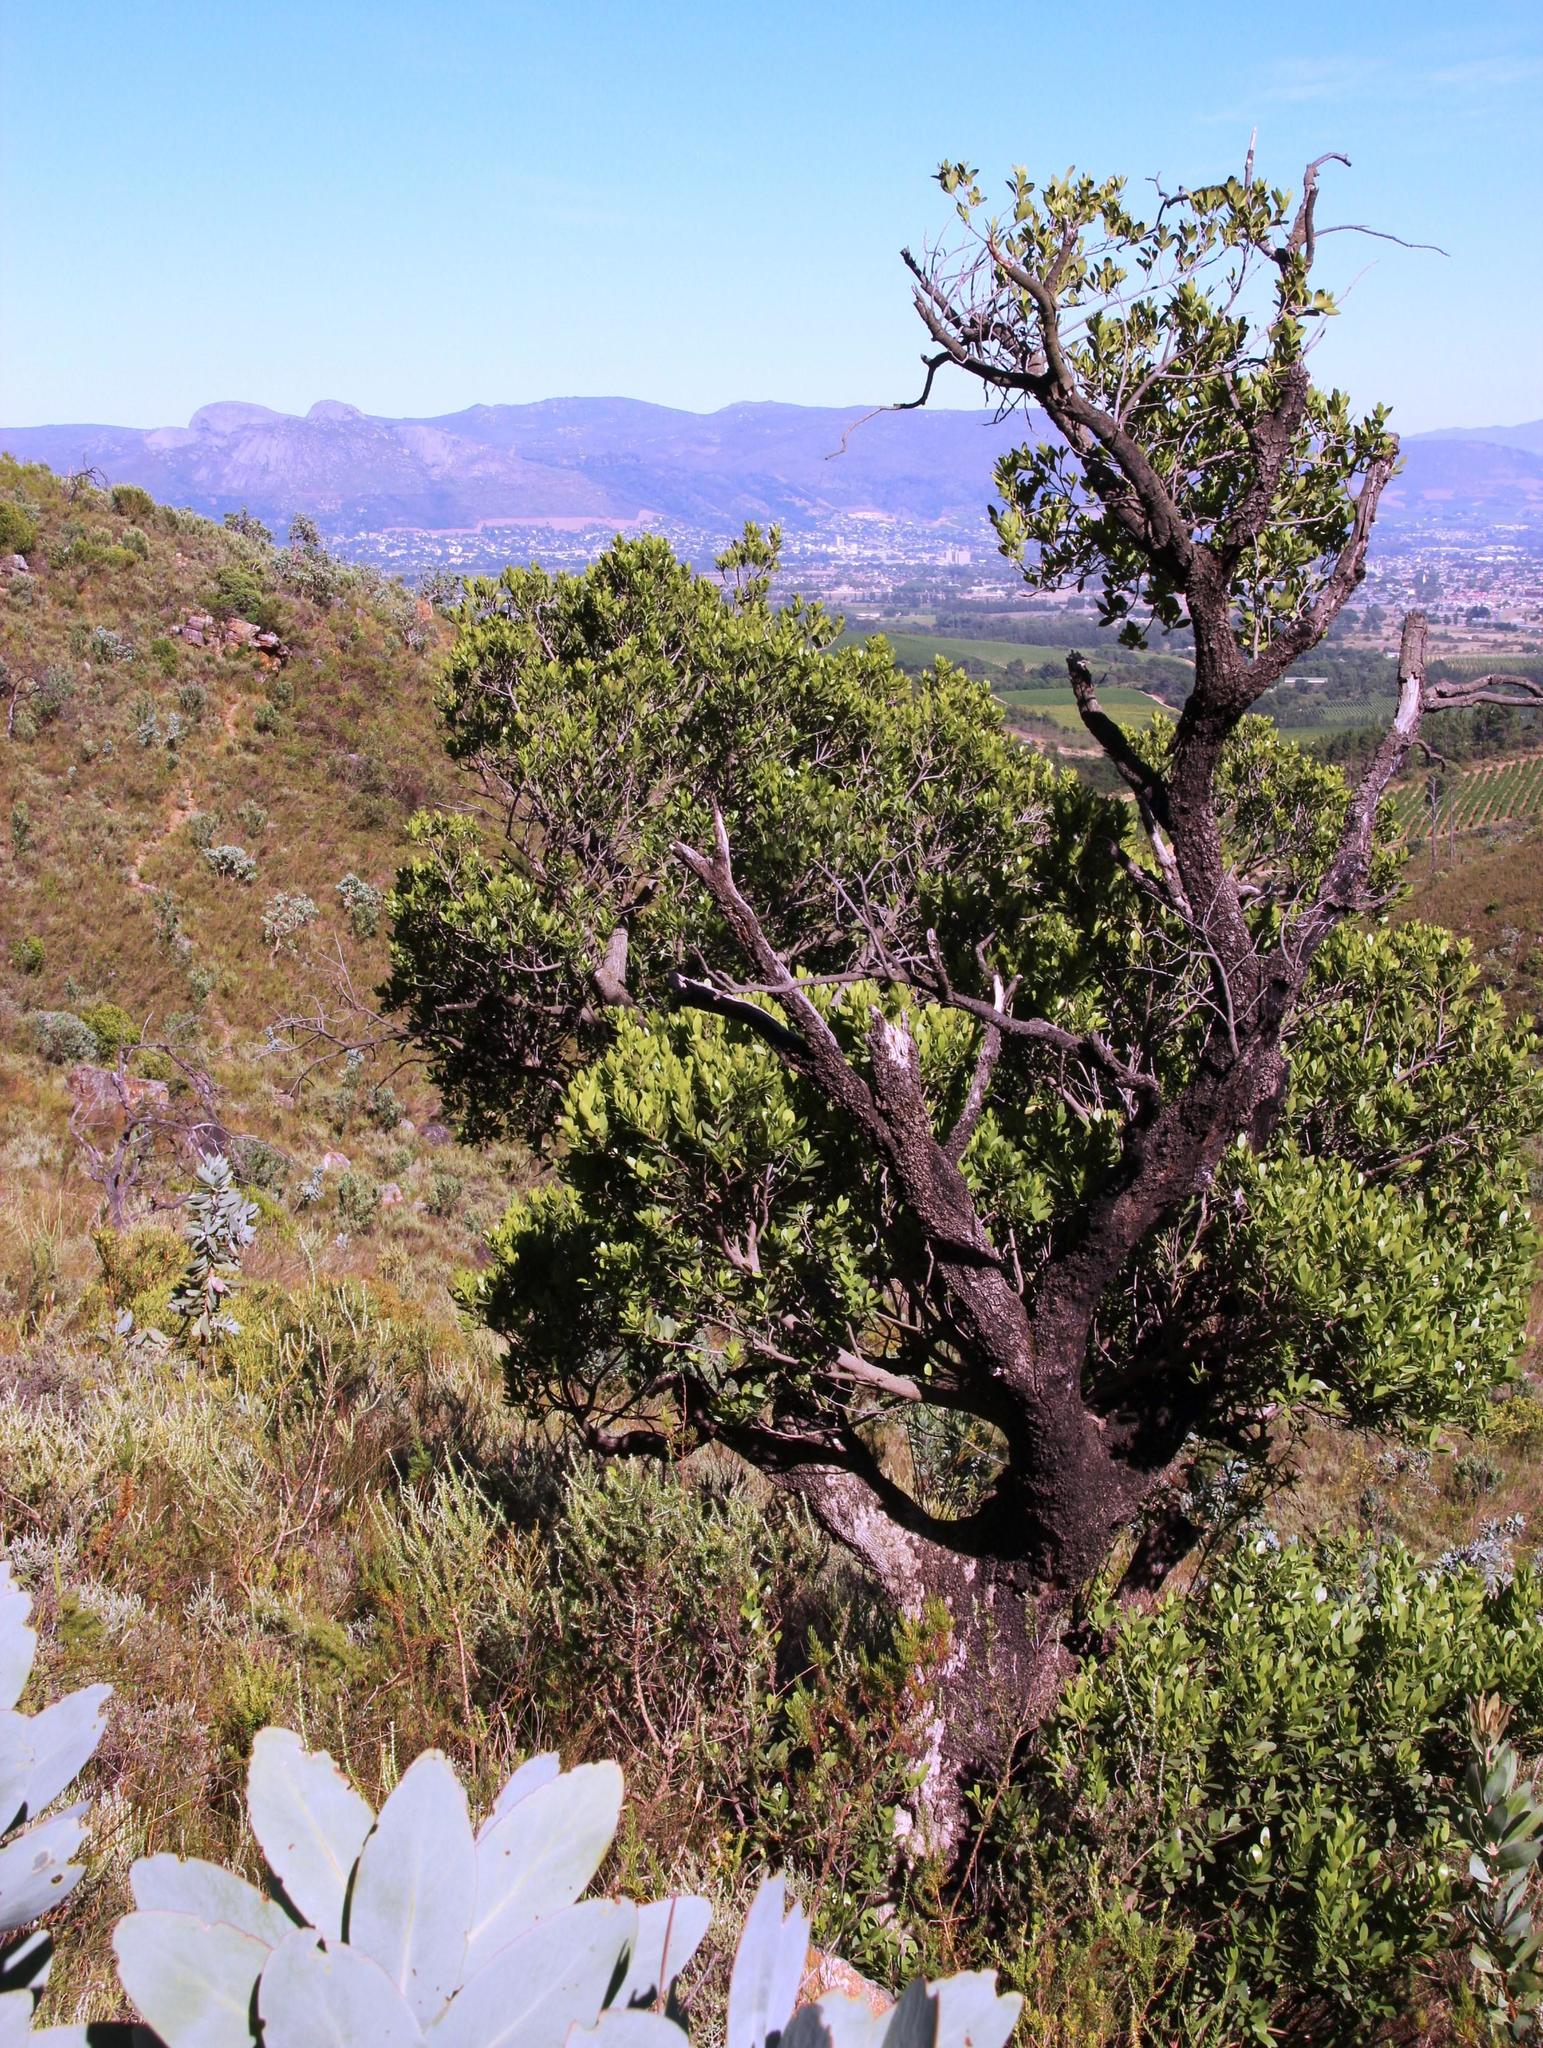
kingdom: Plantae
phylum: Tracheophyta
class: Magnoliopsida
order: Celastrales
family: Celastraceae
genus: Gymnosporia
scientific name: Gymnosporia laurina
